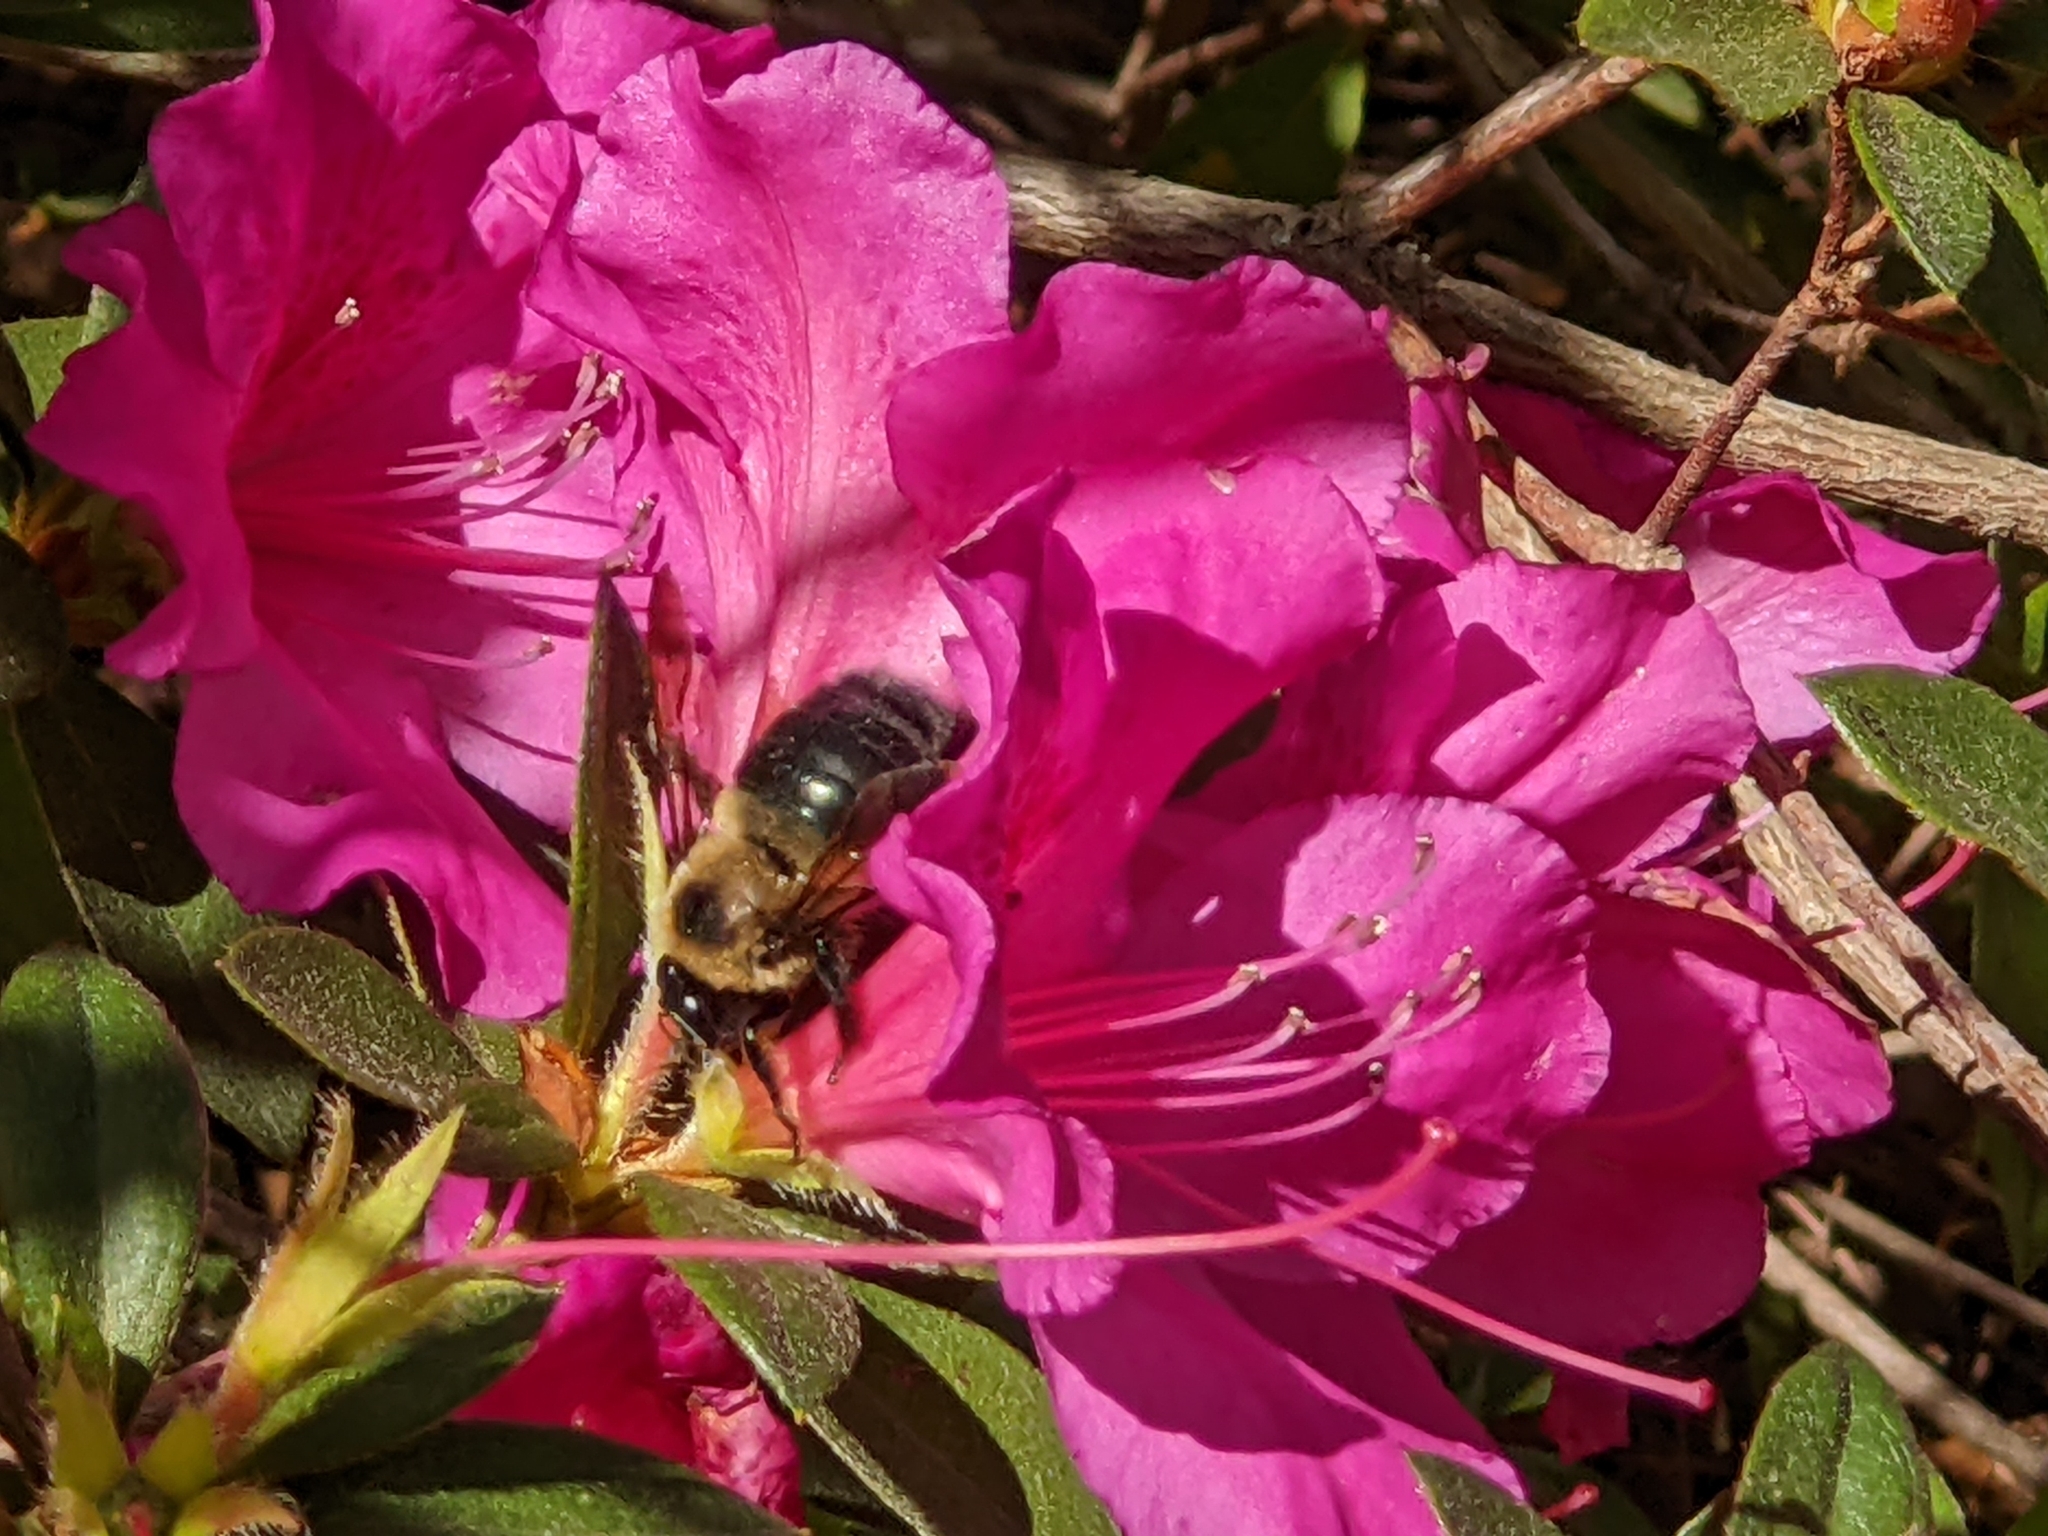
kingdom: Animalia
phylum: Arthropoda
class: Insecta
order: Hymenoptera
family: Apidae
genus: Xylocopa
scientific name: Xylocopa virginica
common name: Carpenter bee
